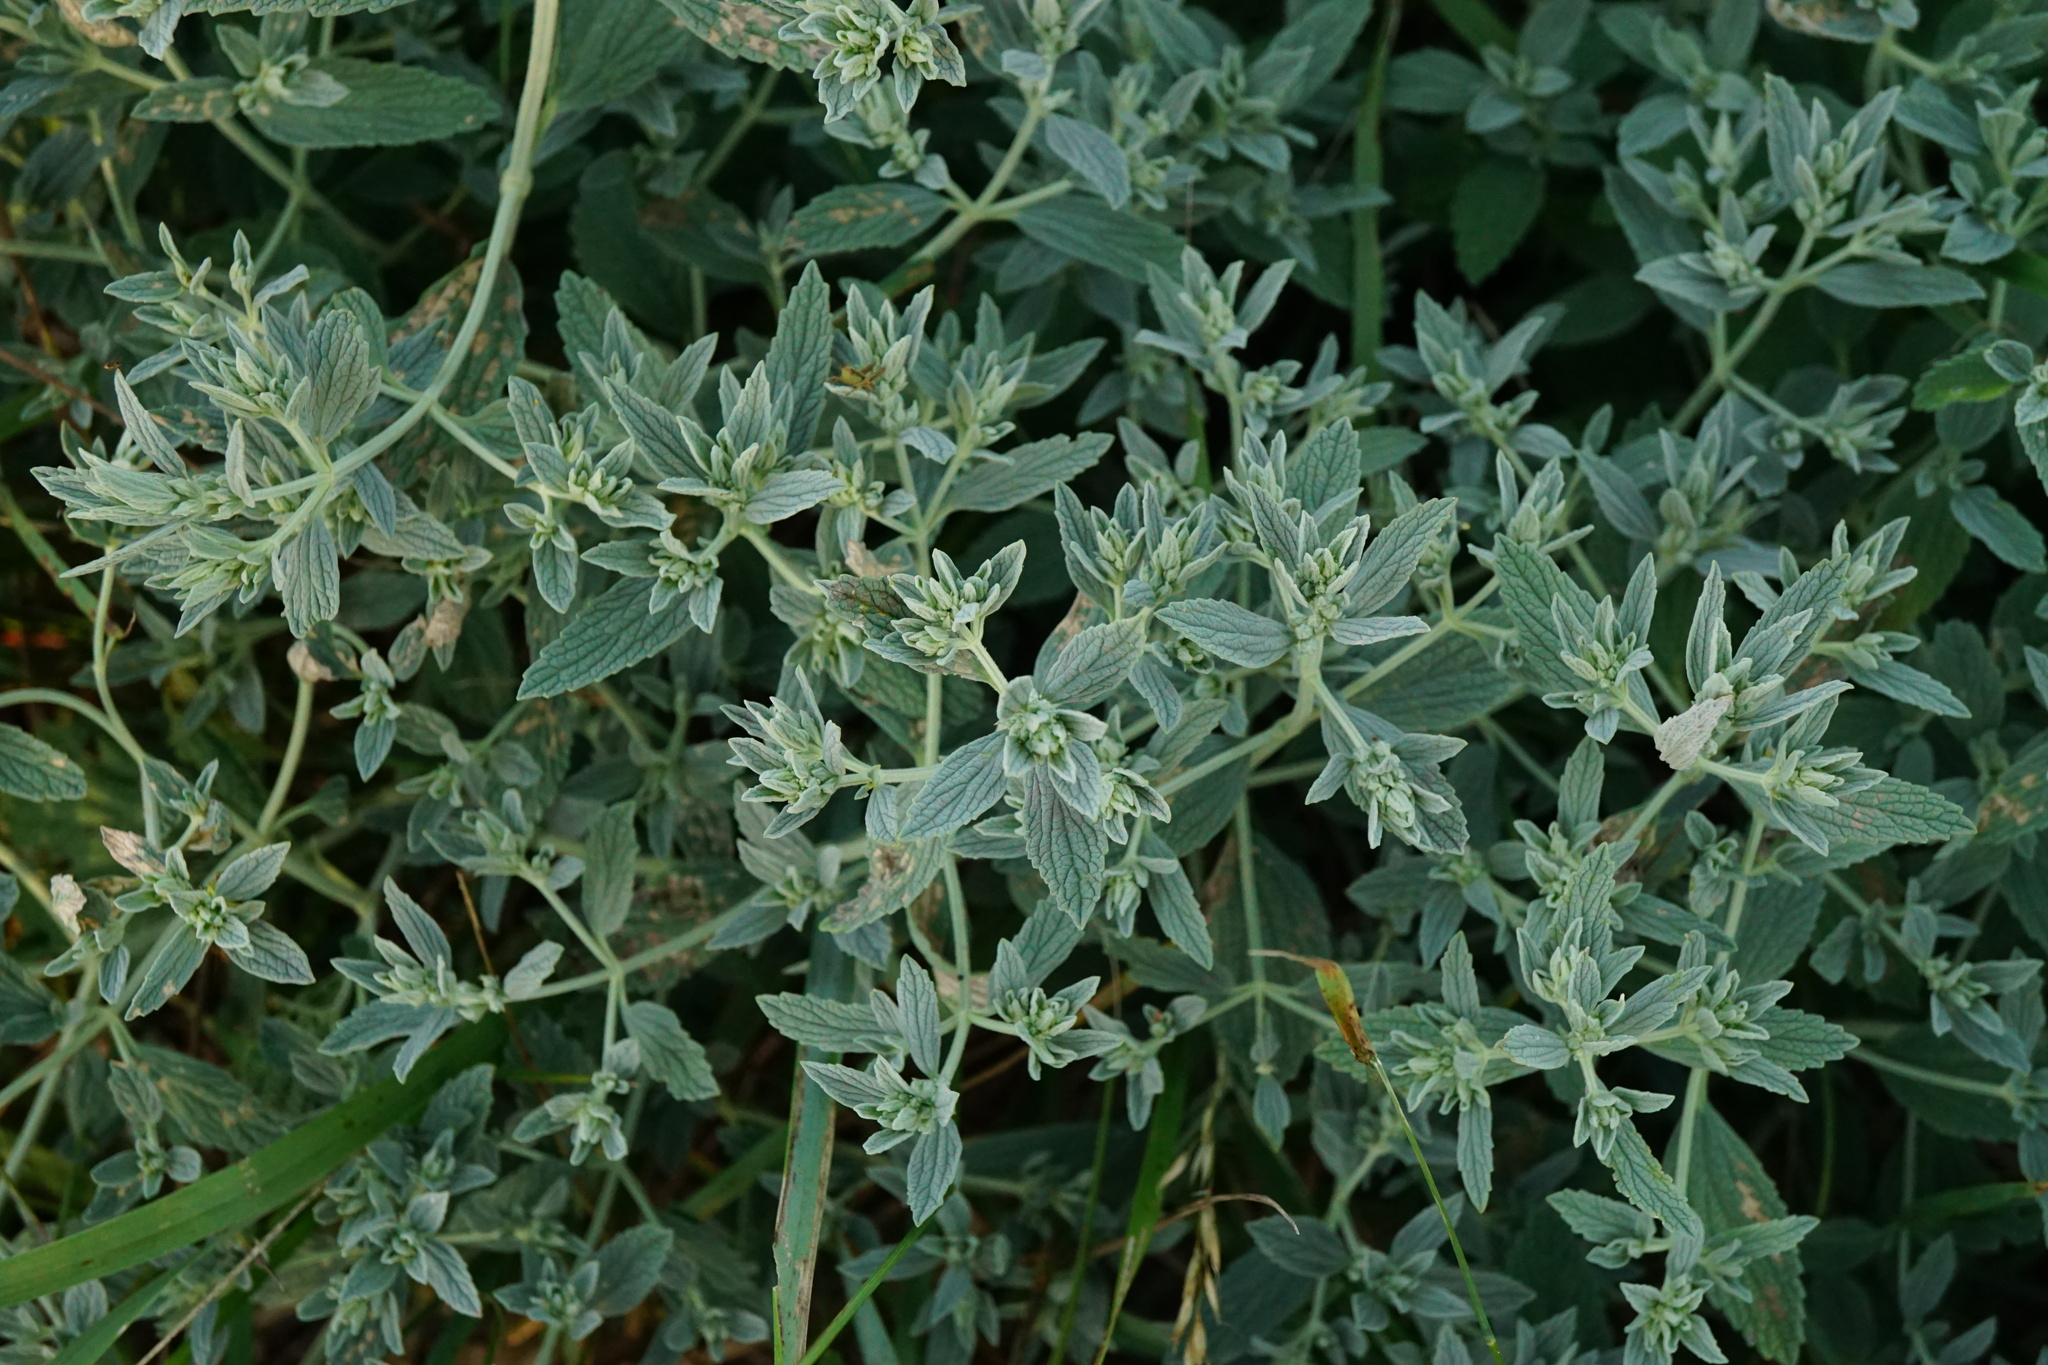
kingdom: Plantae
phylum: Tracheophyta
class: Magnoliopsida
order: Lamiales
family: Lamiaceae
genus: Marrubium
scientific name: Marrubium peregrinum
